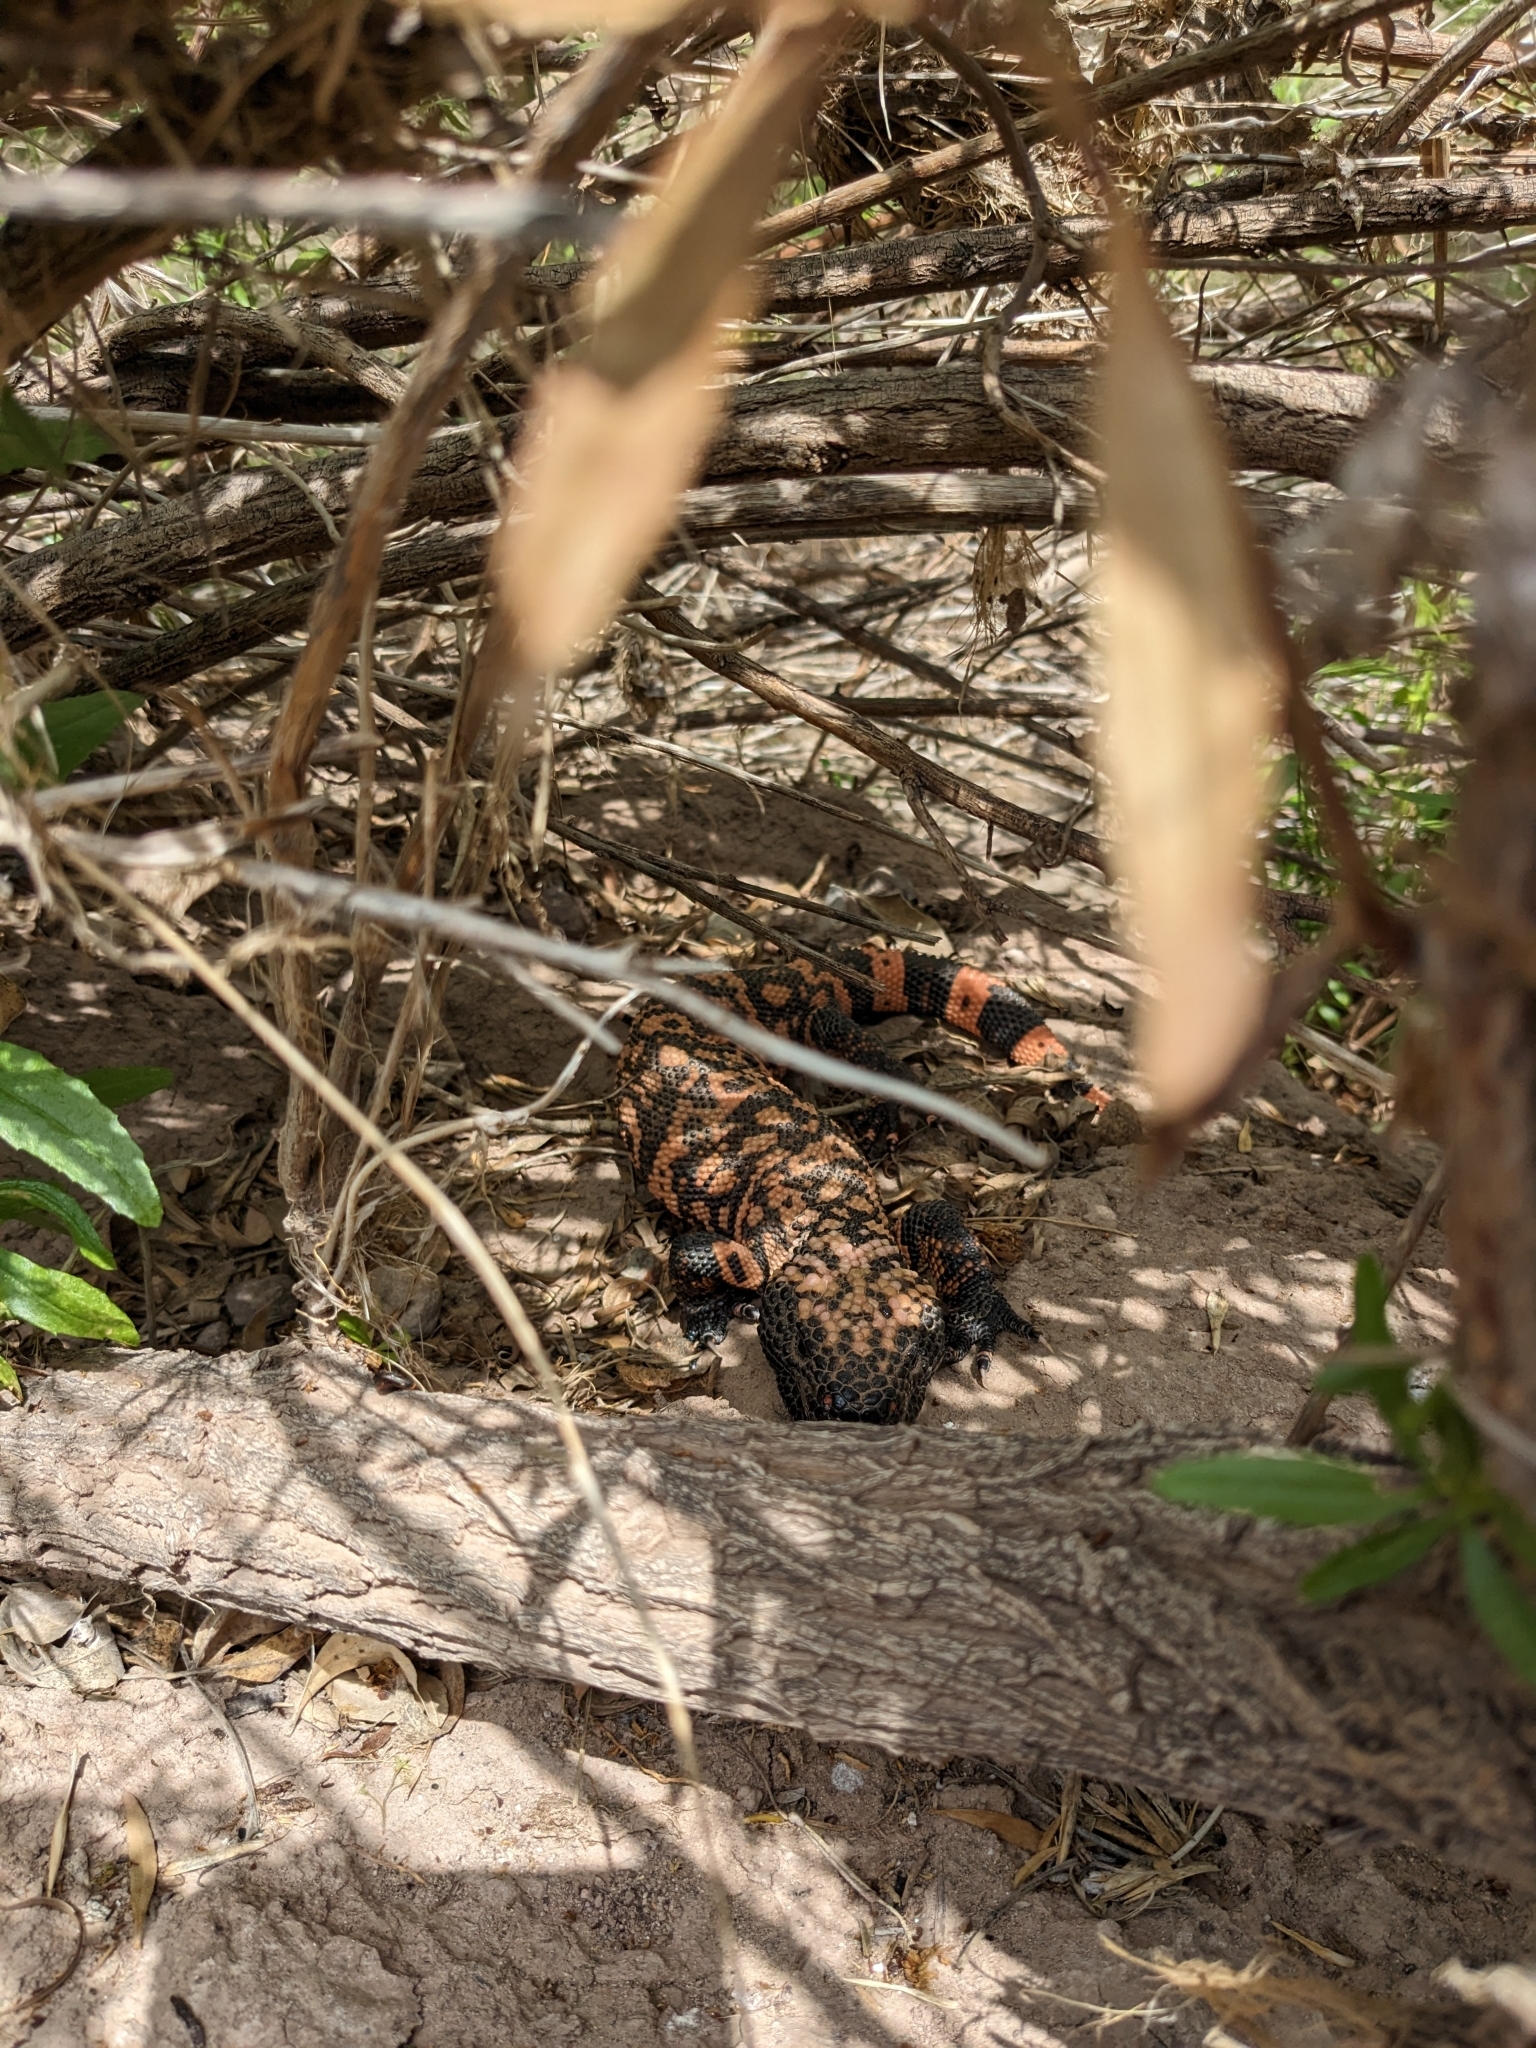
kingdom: Animalia
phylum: Chordata
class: Squamata
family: Helodermatidae
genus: Heloderma
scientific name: Heloderma suspectum
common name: Gila monster
